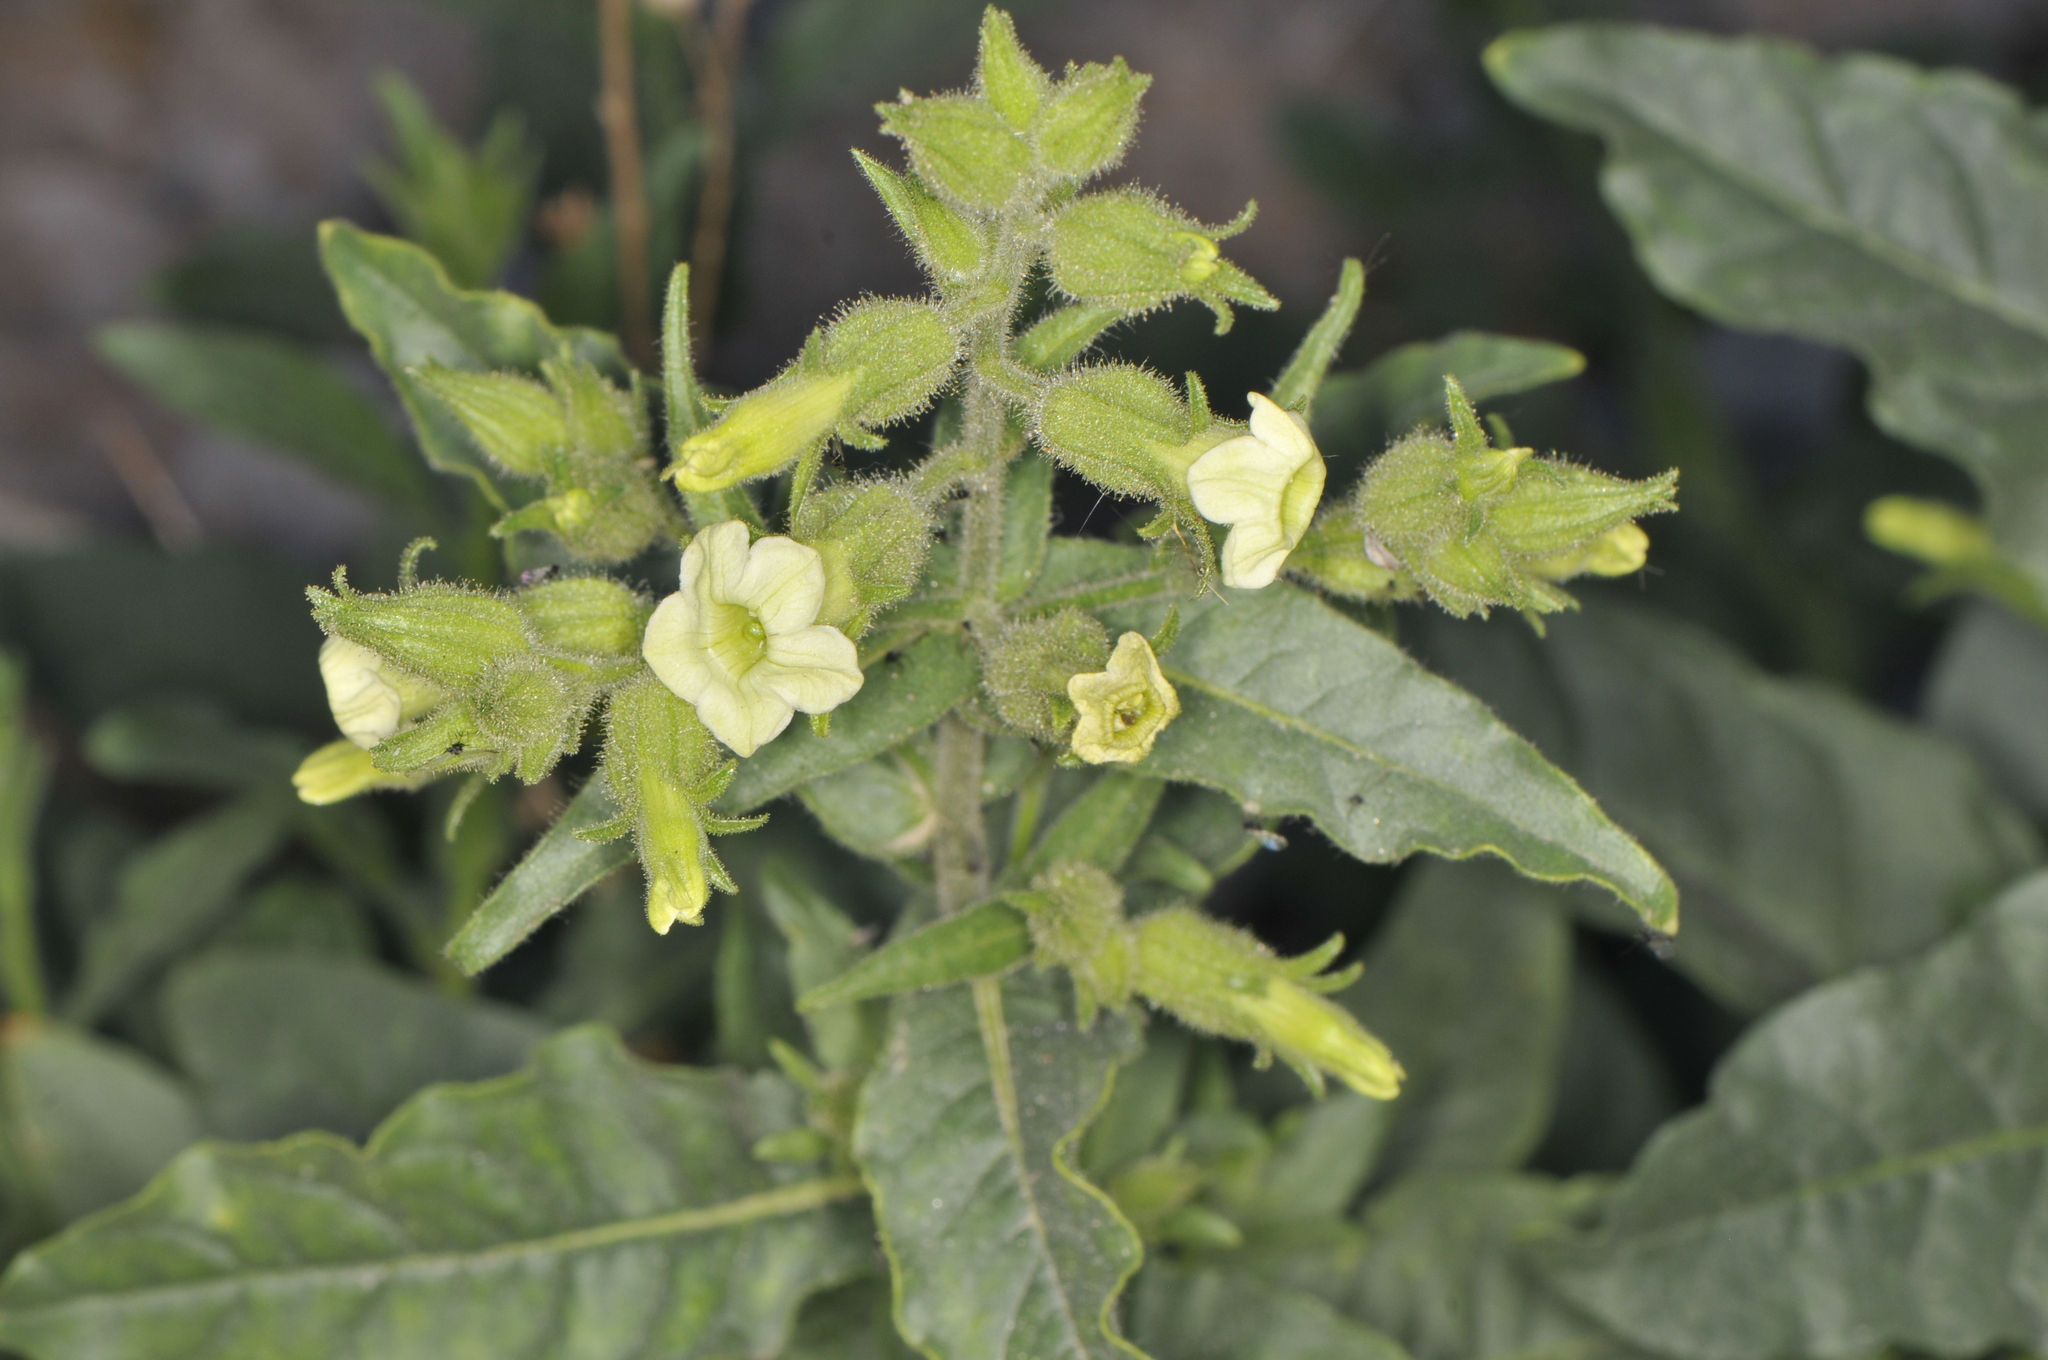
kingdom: Plantae
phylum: Tracheophyta
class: Magnoliopsida
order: Solanales
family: Solanaceae
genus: Nicotiana
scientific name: Nicotiana obtusifolia
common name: Desert tobacco
